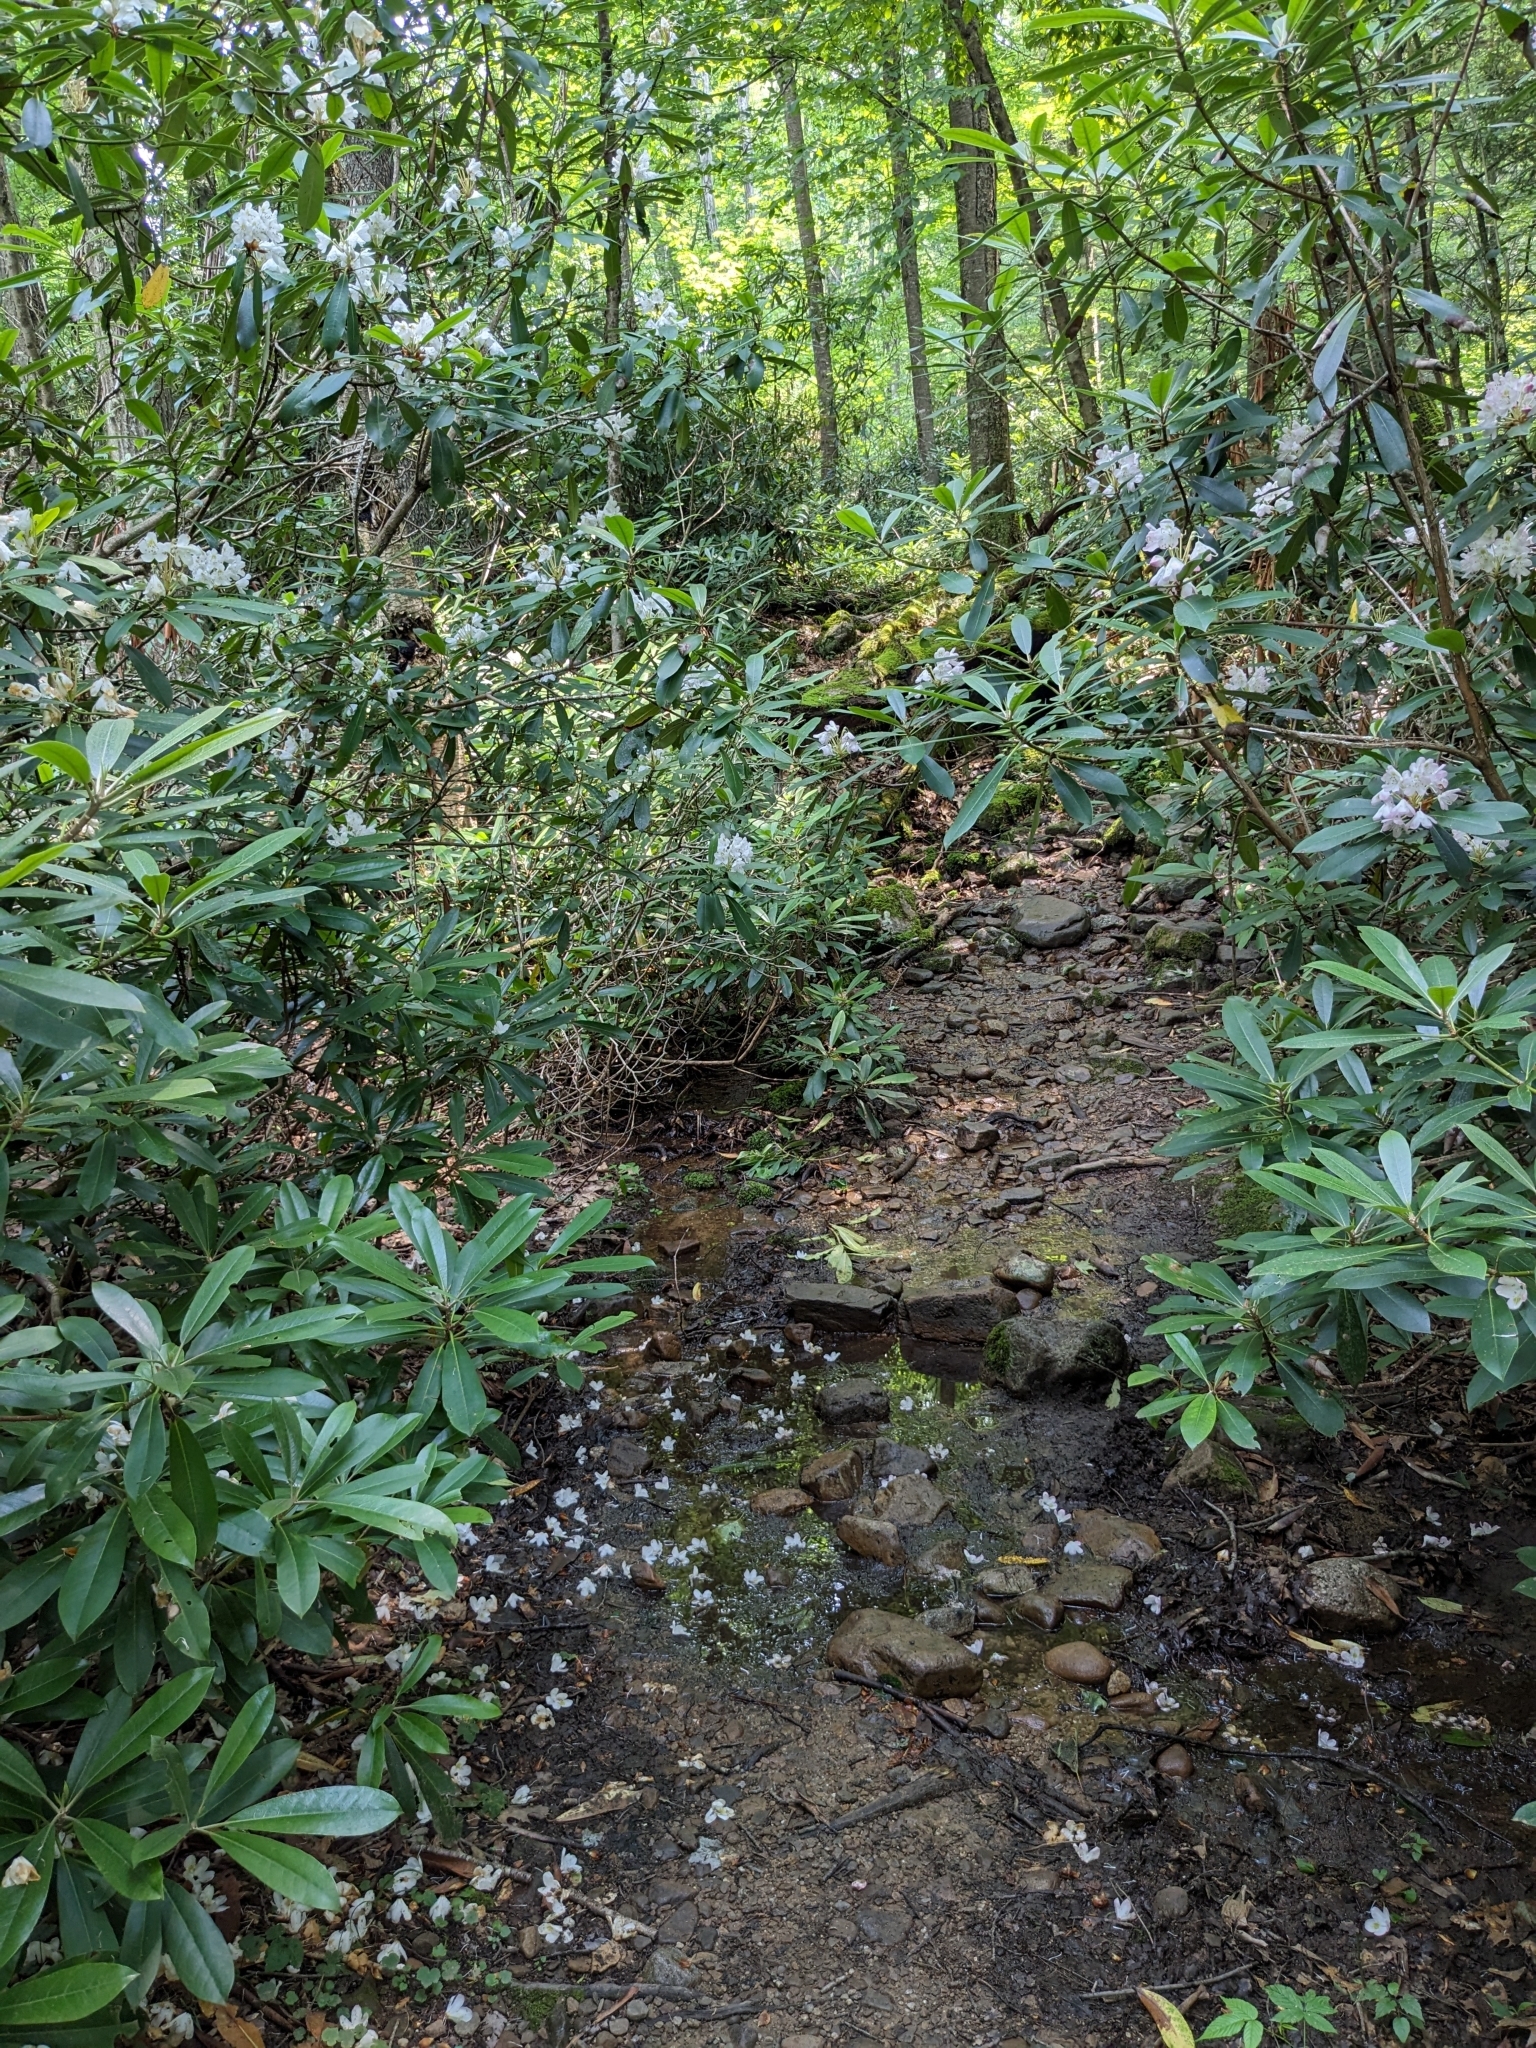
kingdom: Plantae
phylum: Tracheophyta
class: Magnoliopsida
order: Ericales
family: Ericaceae
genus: Rhododendron
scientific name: Rhododendron maximum
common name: Great rhododendron
